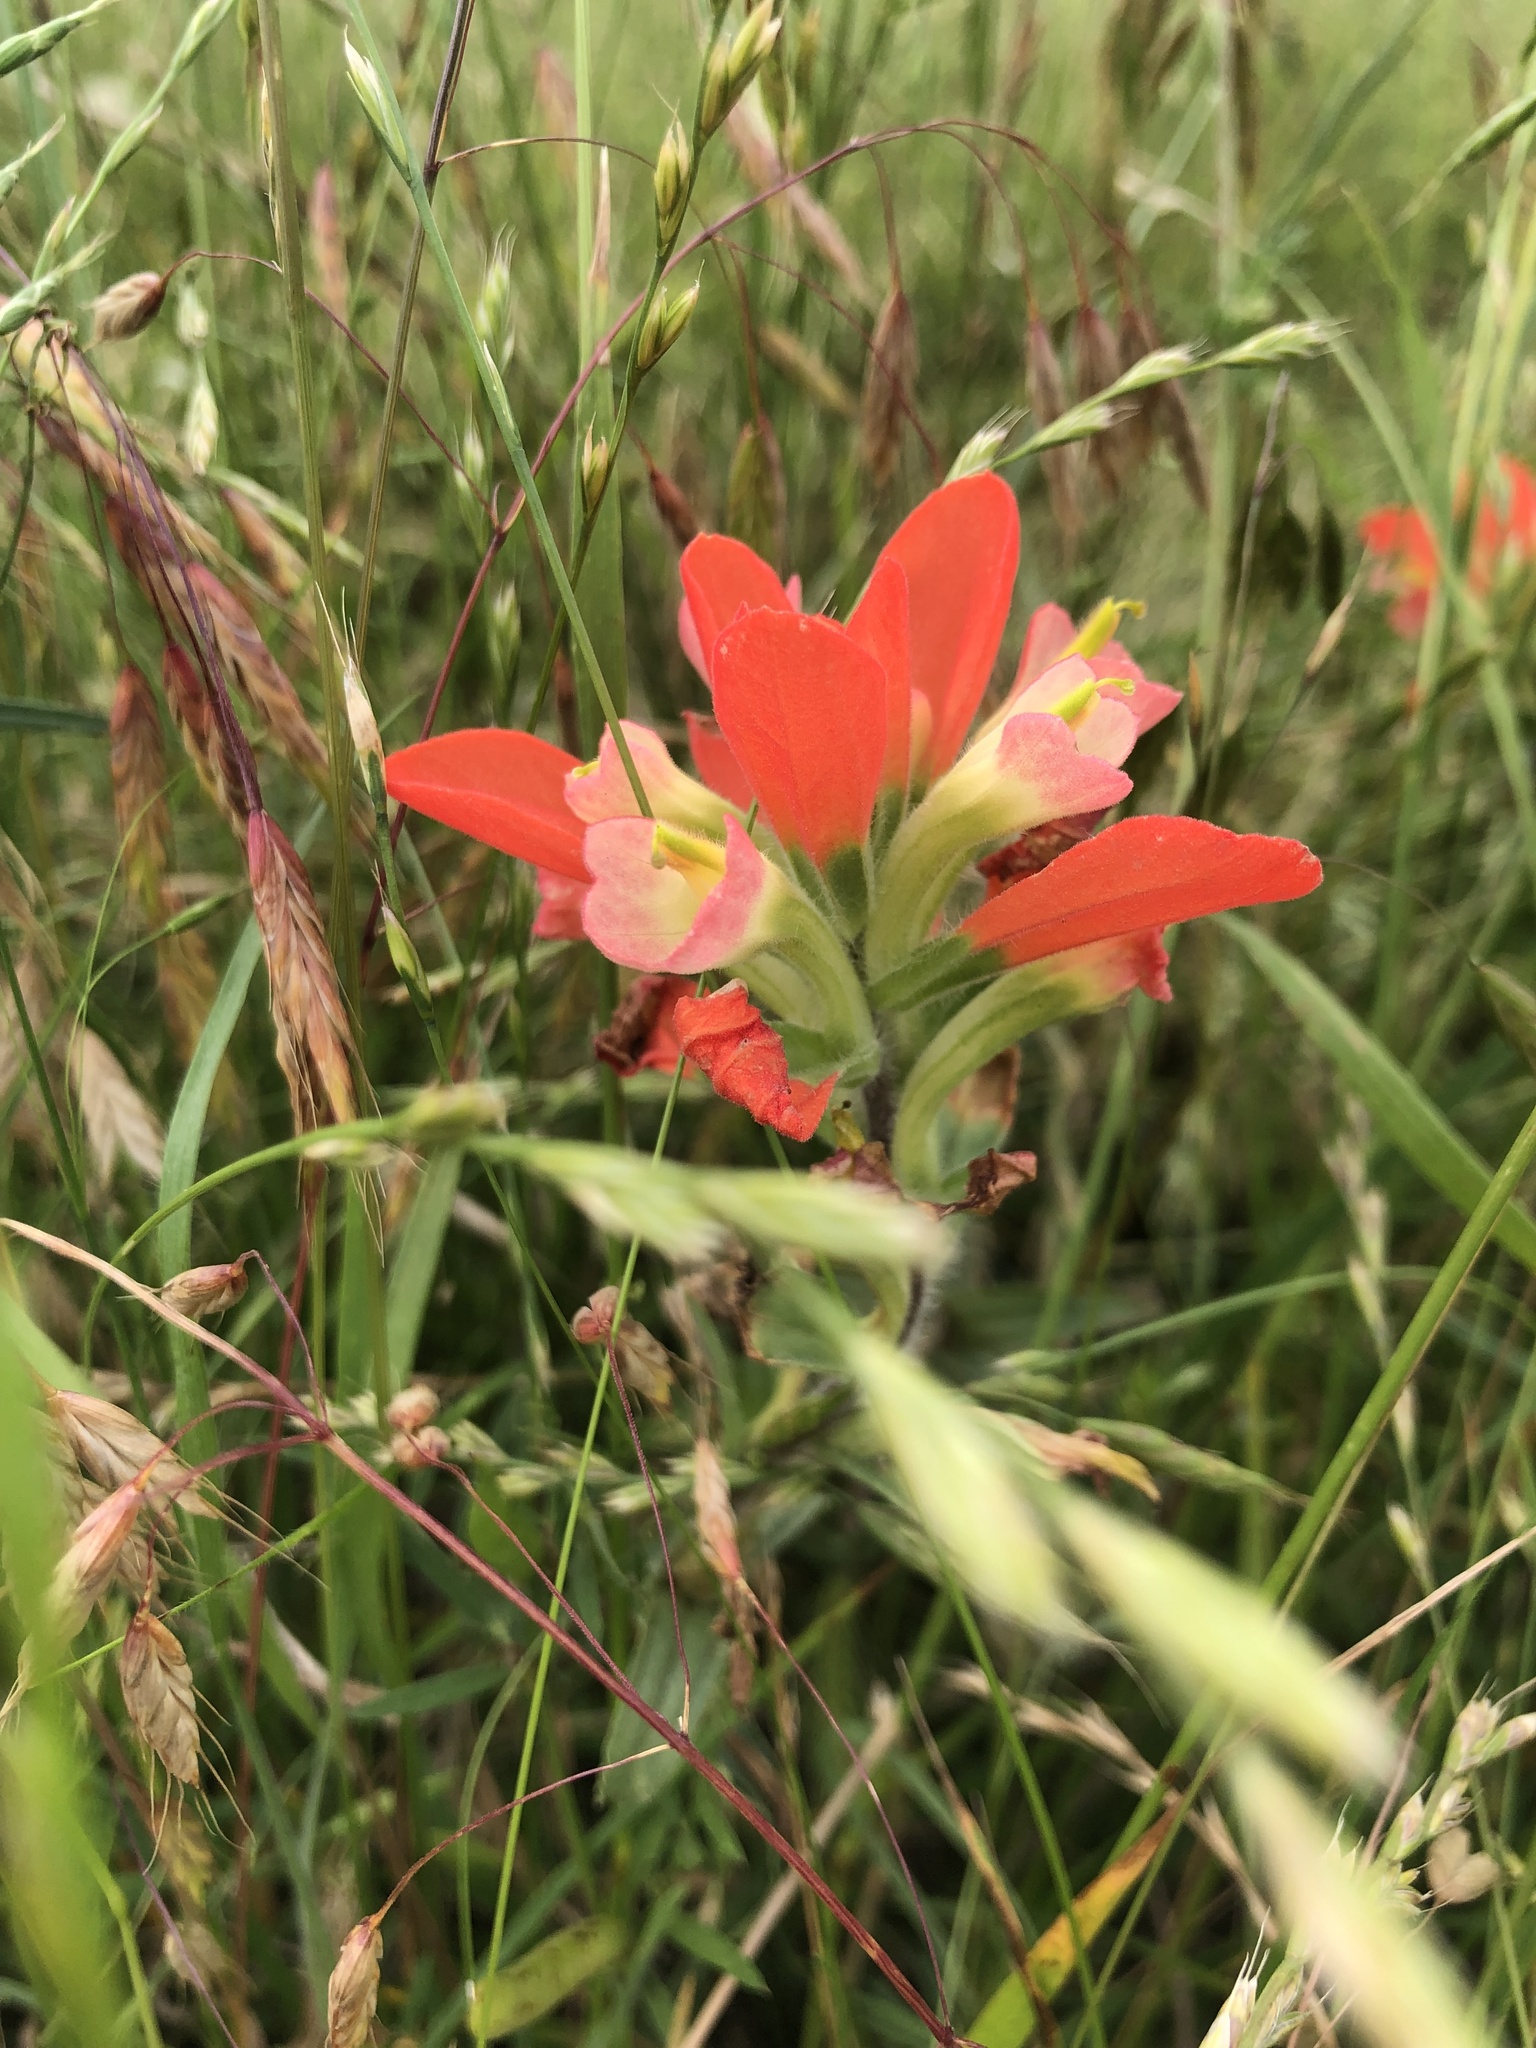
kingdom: Plantae
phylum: Tracheophyta
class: Magnoliopsida
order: Lamiales
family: Orobanchaceae
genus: Castilleja
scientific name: Castilleja indivisa
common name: Texas paintbrush
